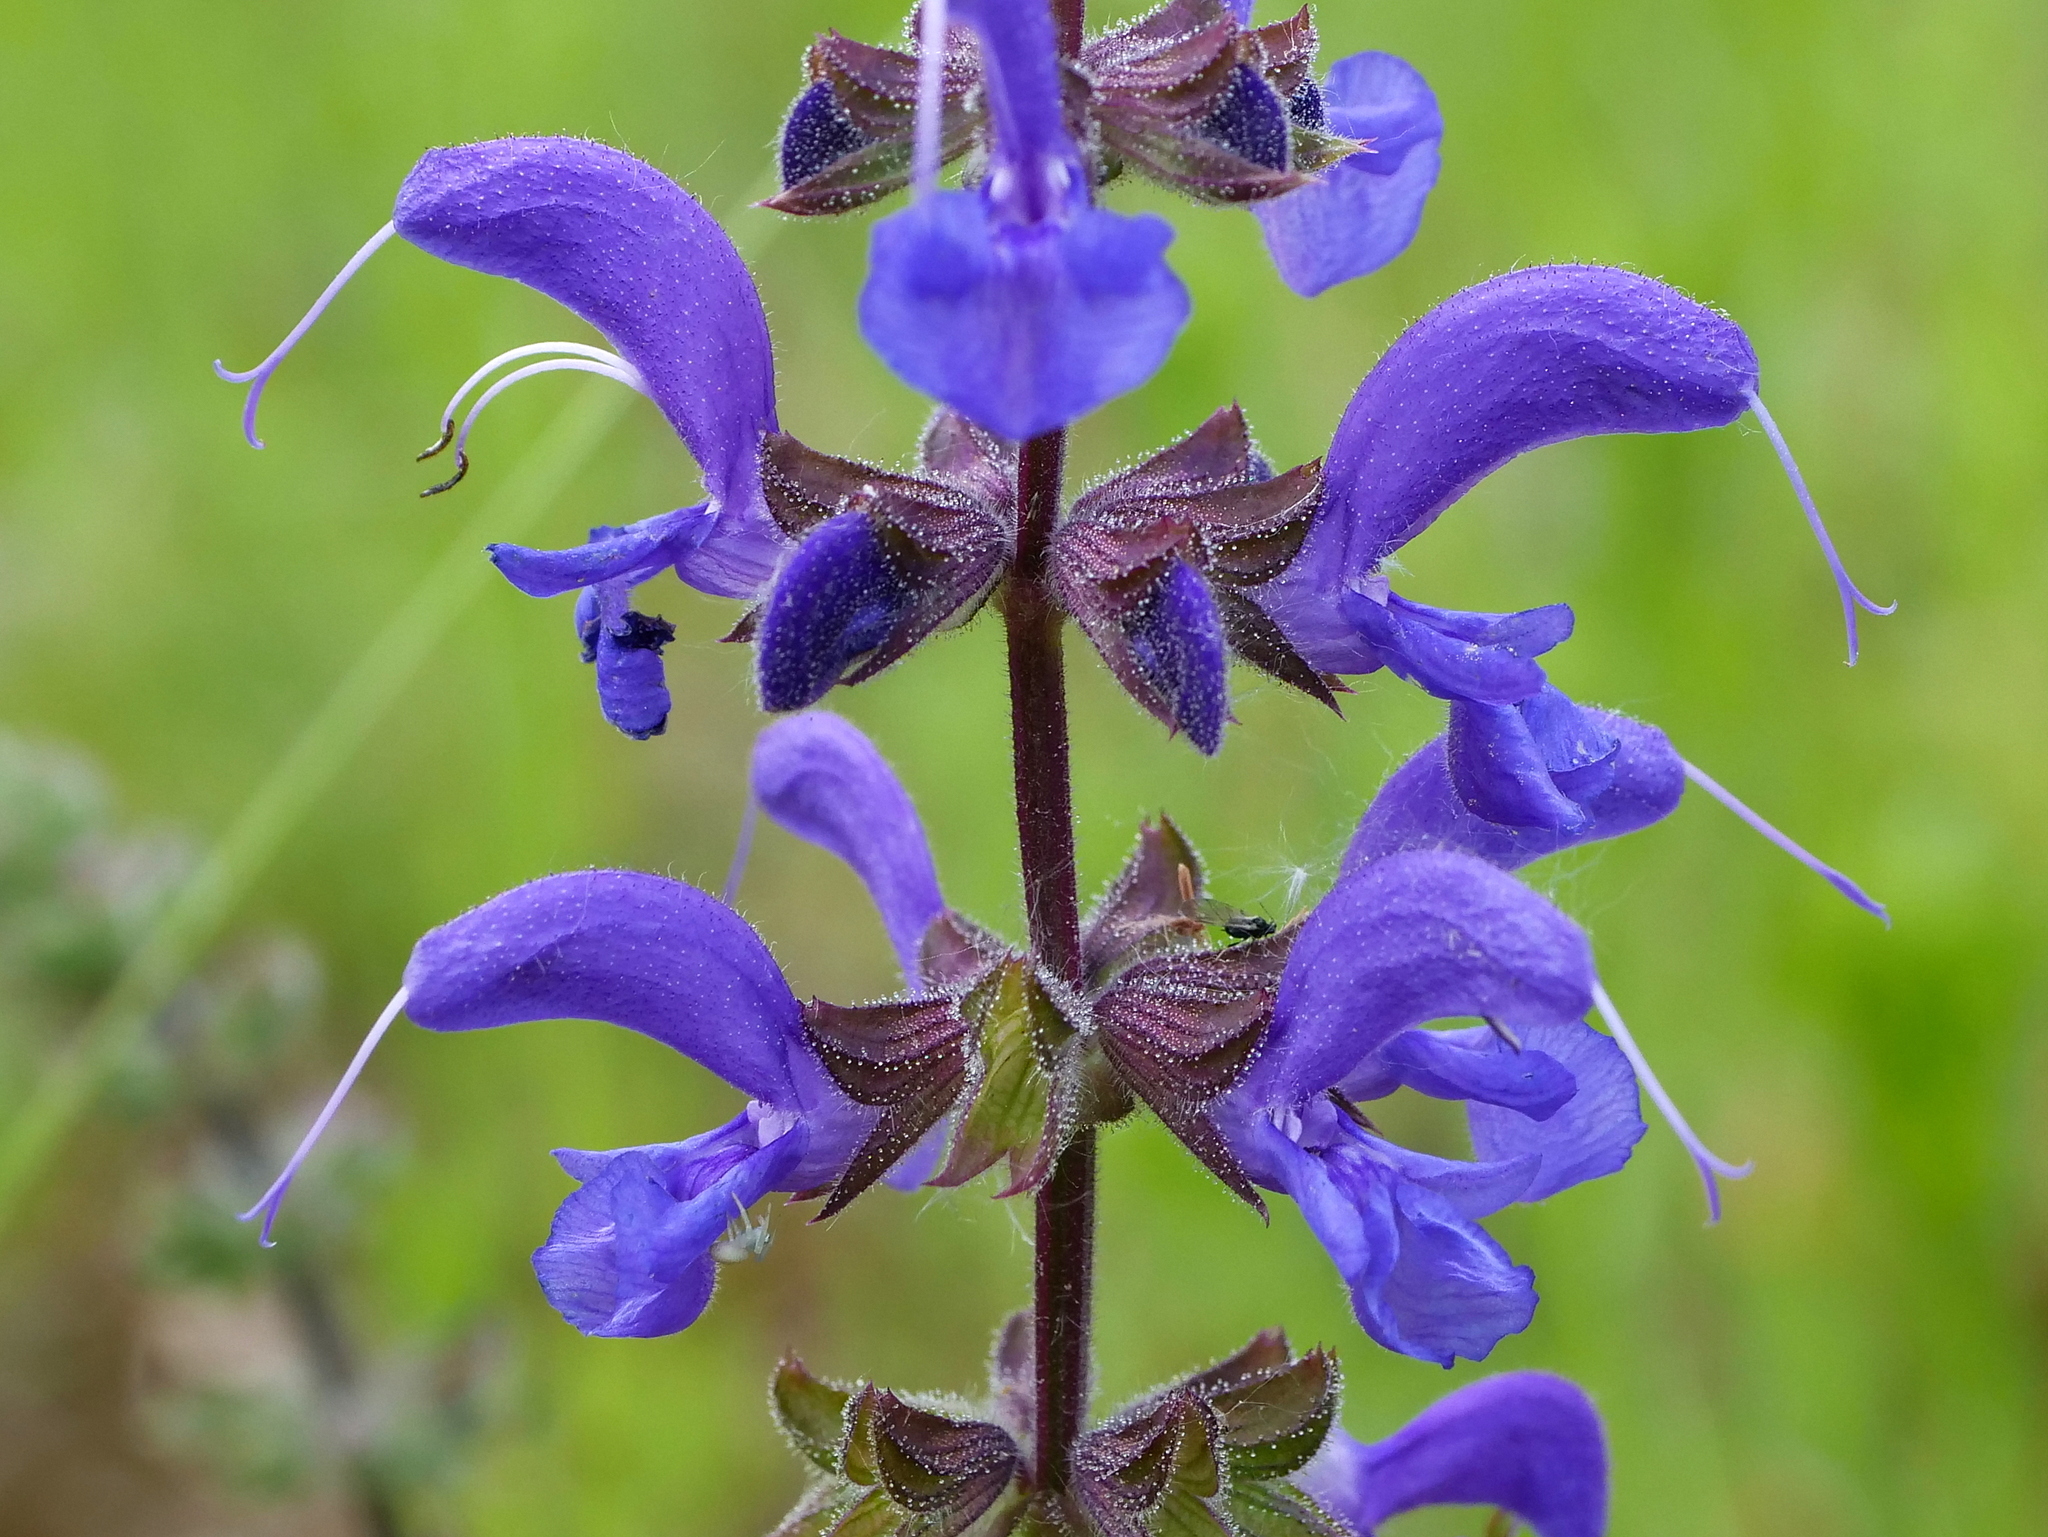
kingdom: Plantae
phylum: Tracheophyta
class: Magnoliopsida
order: Lamiales
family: Lamiaceae
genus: Salvia
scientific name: Salvia pratensis
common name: Meadow sage
